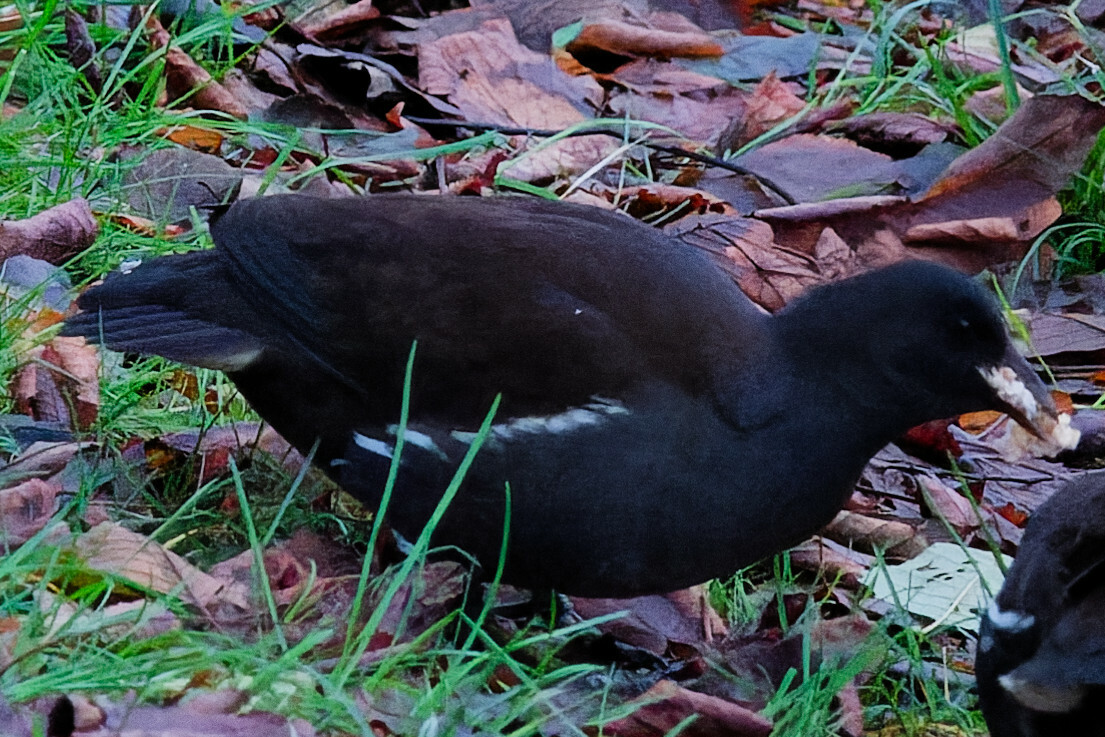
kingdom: Animalia
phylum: Chordata
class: Aves
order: Gruiformes
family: Rallidae
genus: Gallinula
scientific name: Gallinula chloropus
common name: Common moorhen
